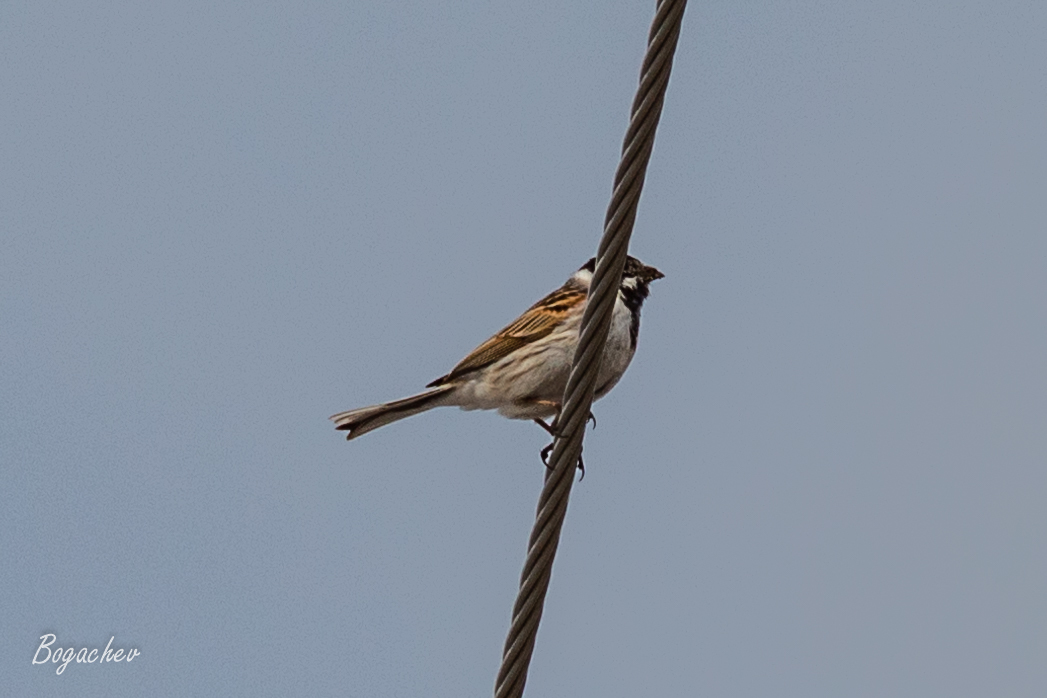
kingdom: Animalia
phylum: Chordata
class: Aves
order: Passeriformes
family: Emberizidae
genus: Emberiza
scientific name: Emberiza schoeniclus
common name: Reed bunting
